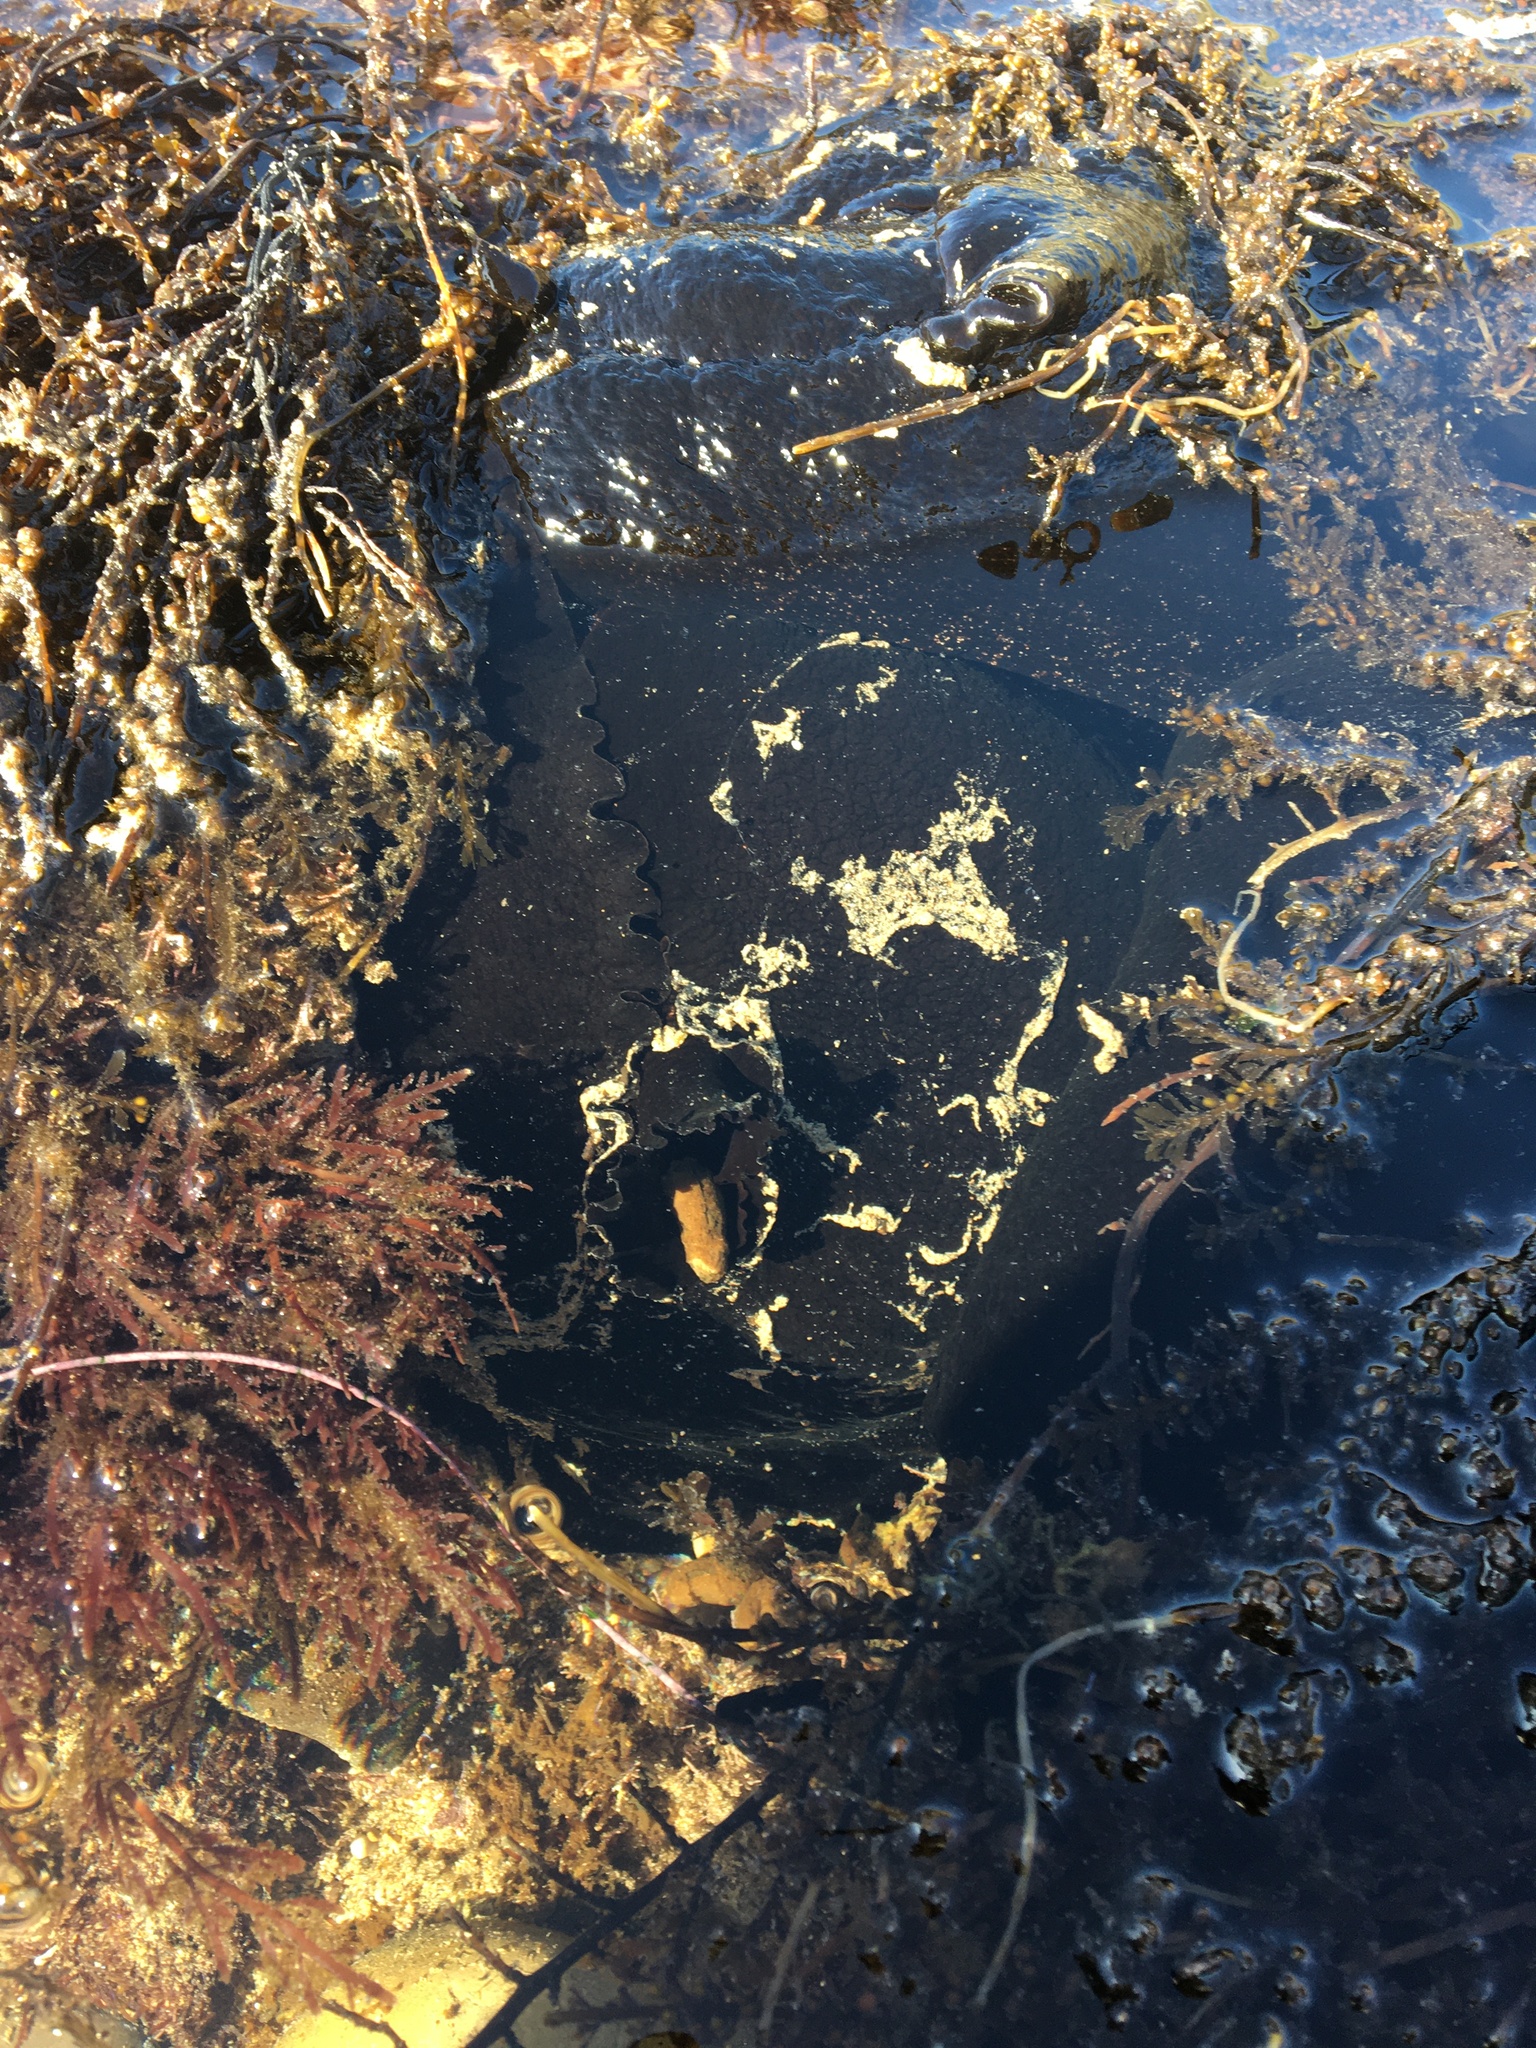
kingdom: Animalia
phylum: Mollusca
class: Gastropoda
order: Aplysiida
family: Aplysiidae
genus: Aplysia
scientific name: Aplysia vaccaria
